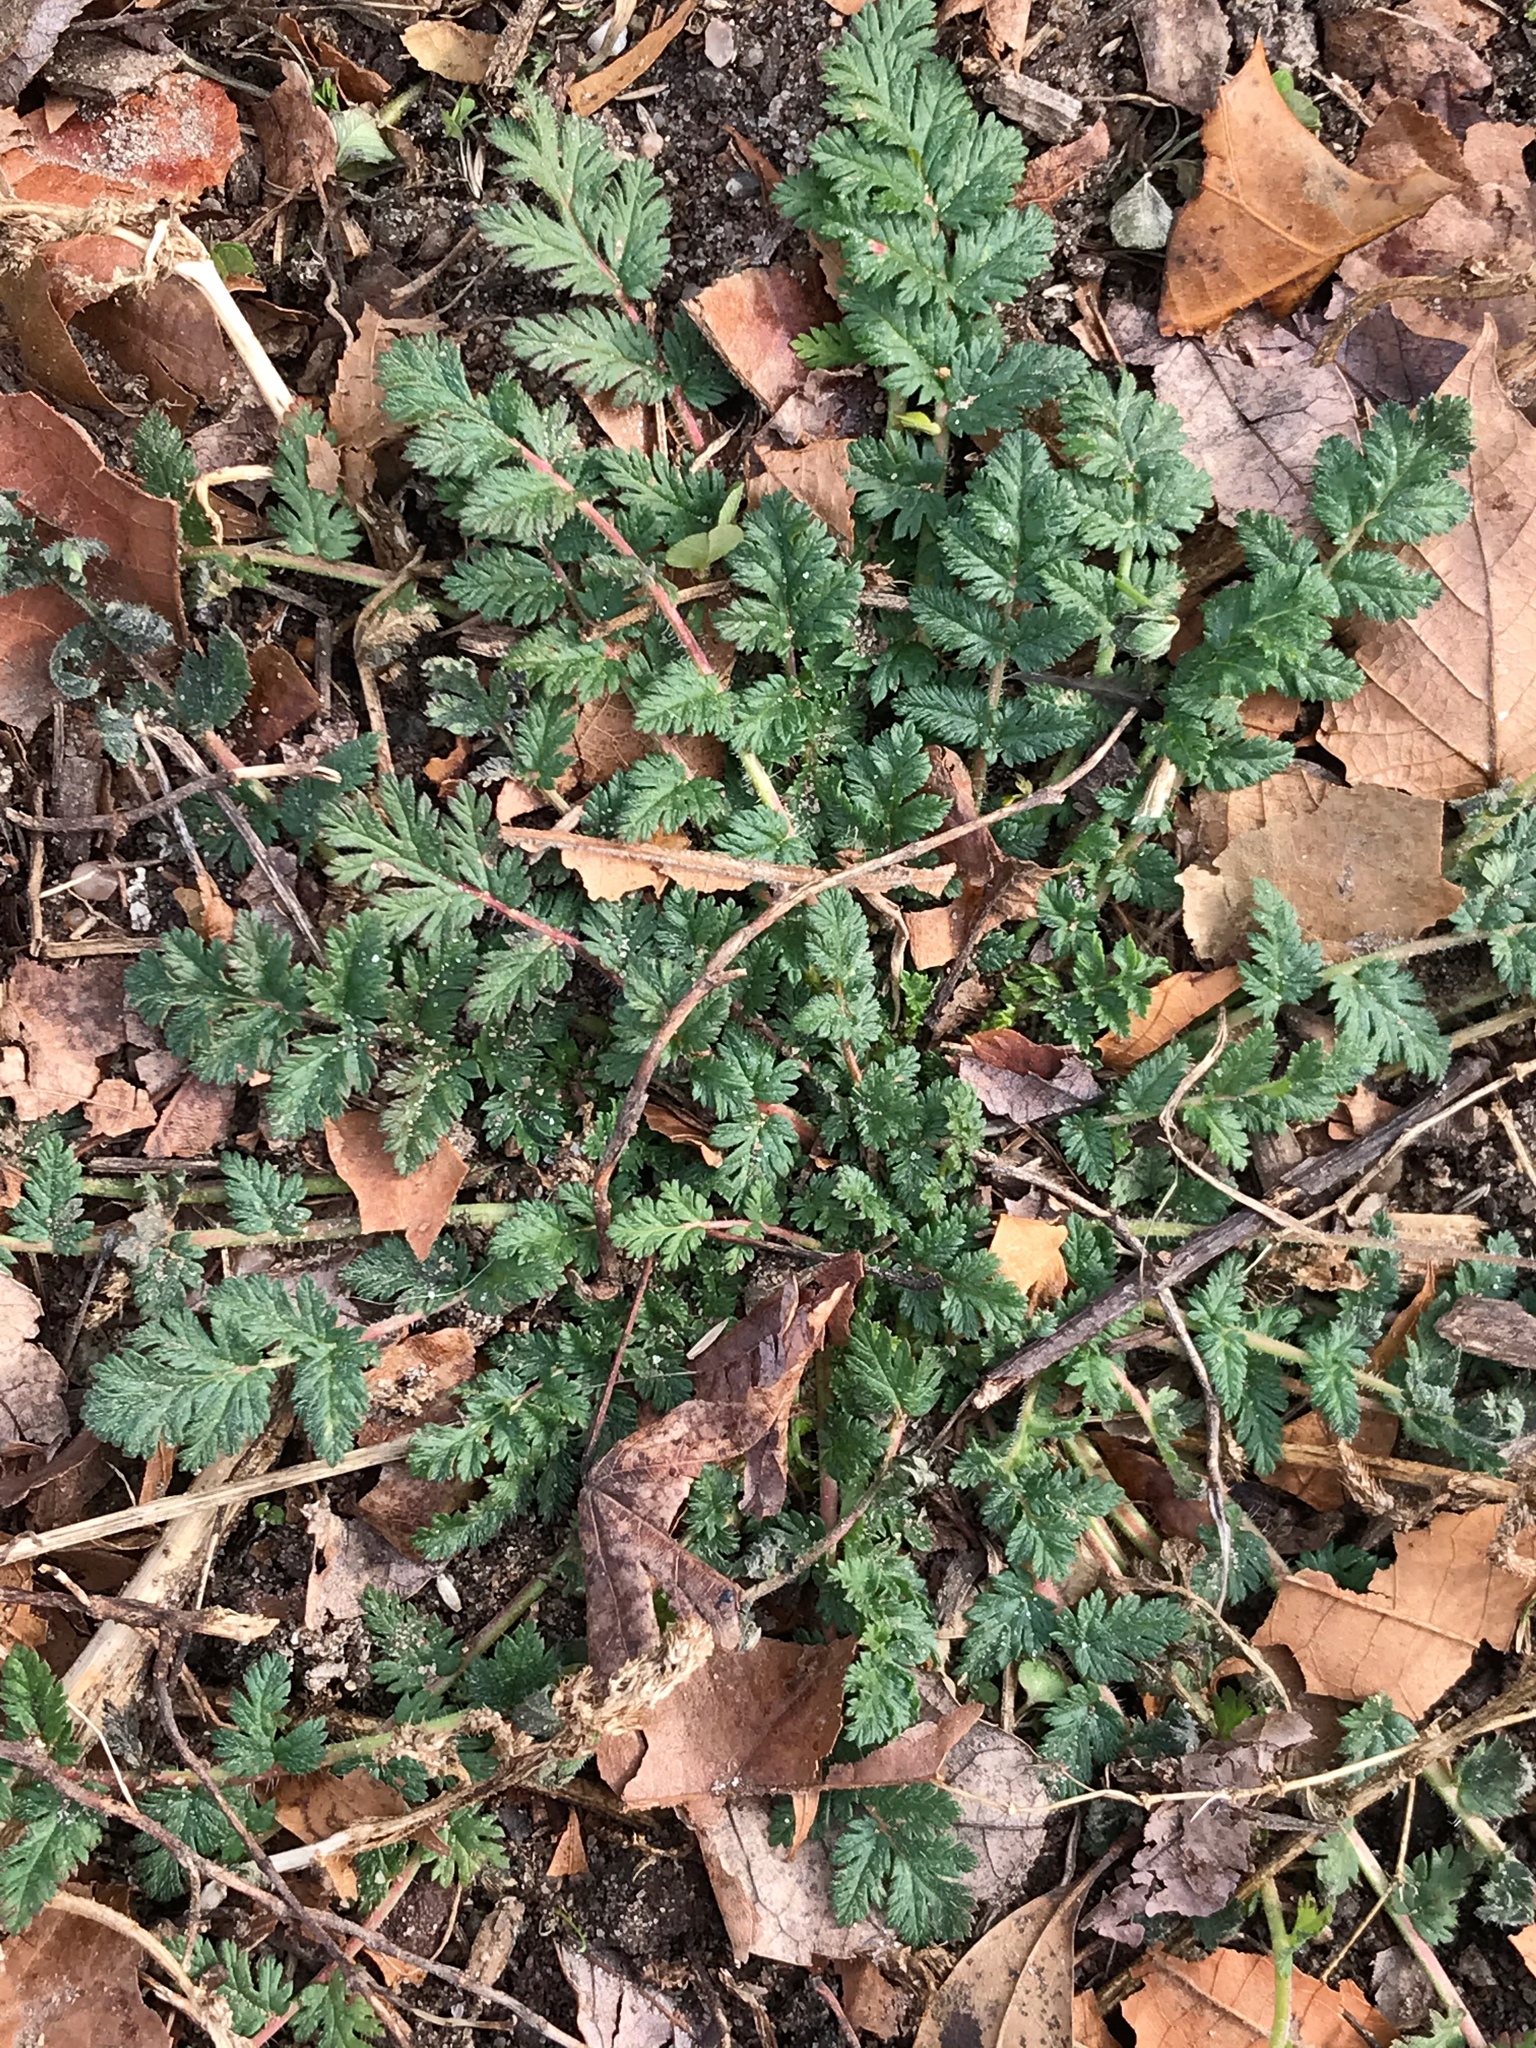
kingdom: Plantae
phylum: Tracheophyta
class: Magnoliopsida
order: Geraniales
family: Geraniaceae
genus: Erodium
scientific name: Erodium cicutarium
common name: Common stork's-bill
